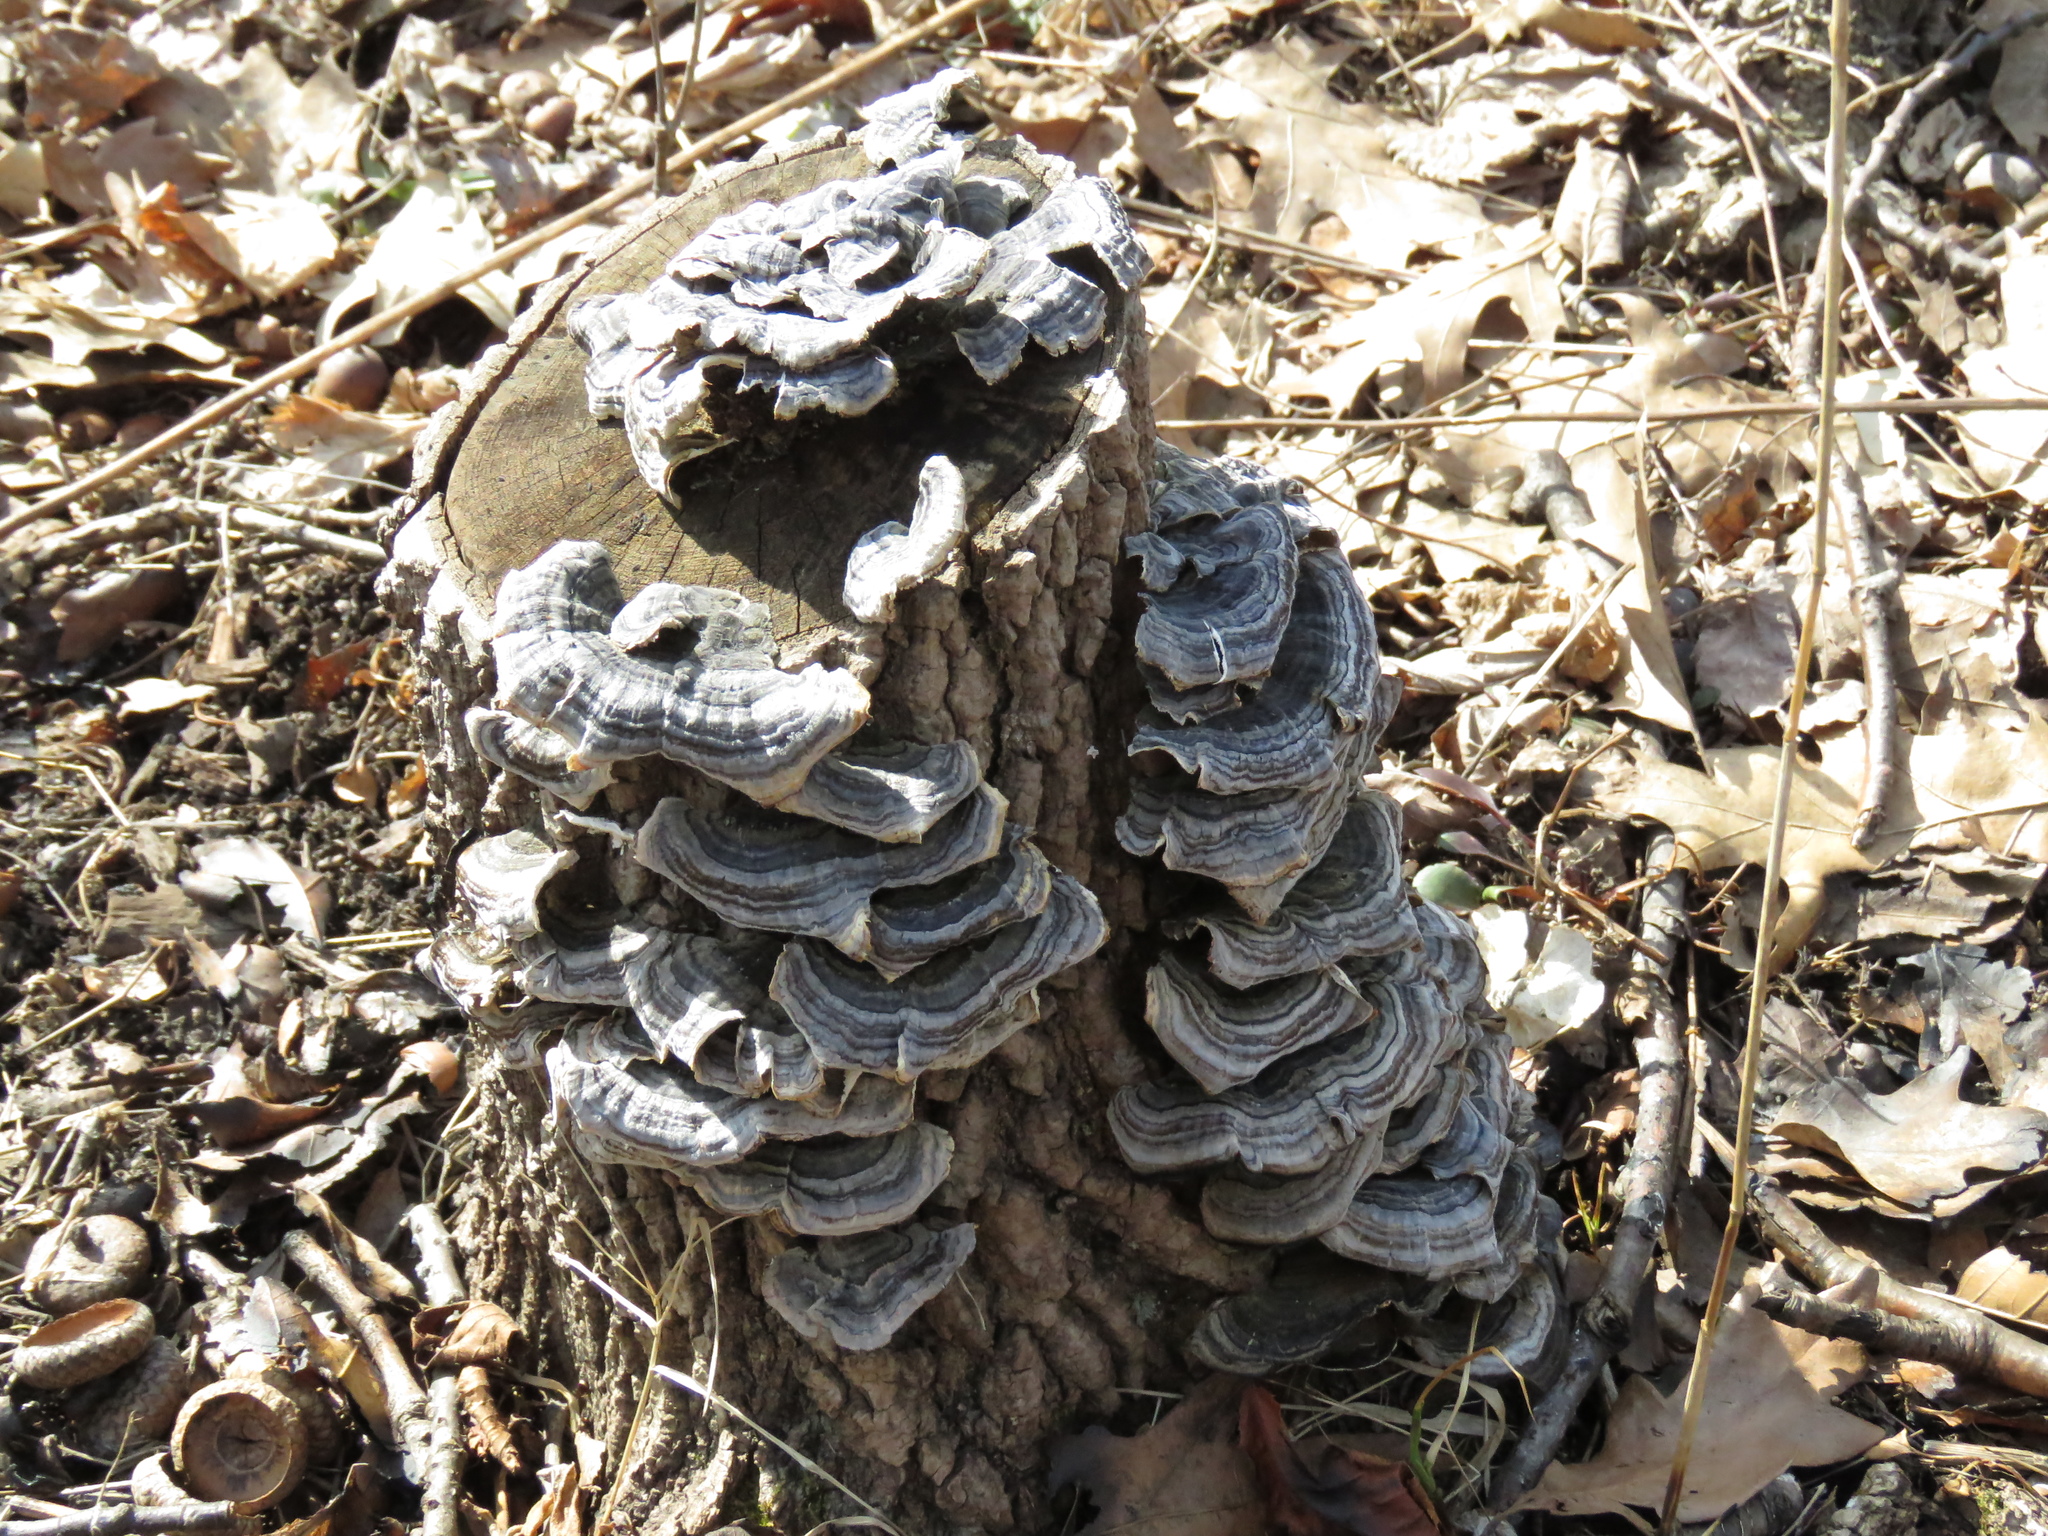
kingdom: Fungi
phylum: Basidiomycota
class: Agaricomycetes
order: Polyporales
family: Polyporaceae
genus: Trametes
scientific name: Trametes versicolor
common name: Turkeytail
